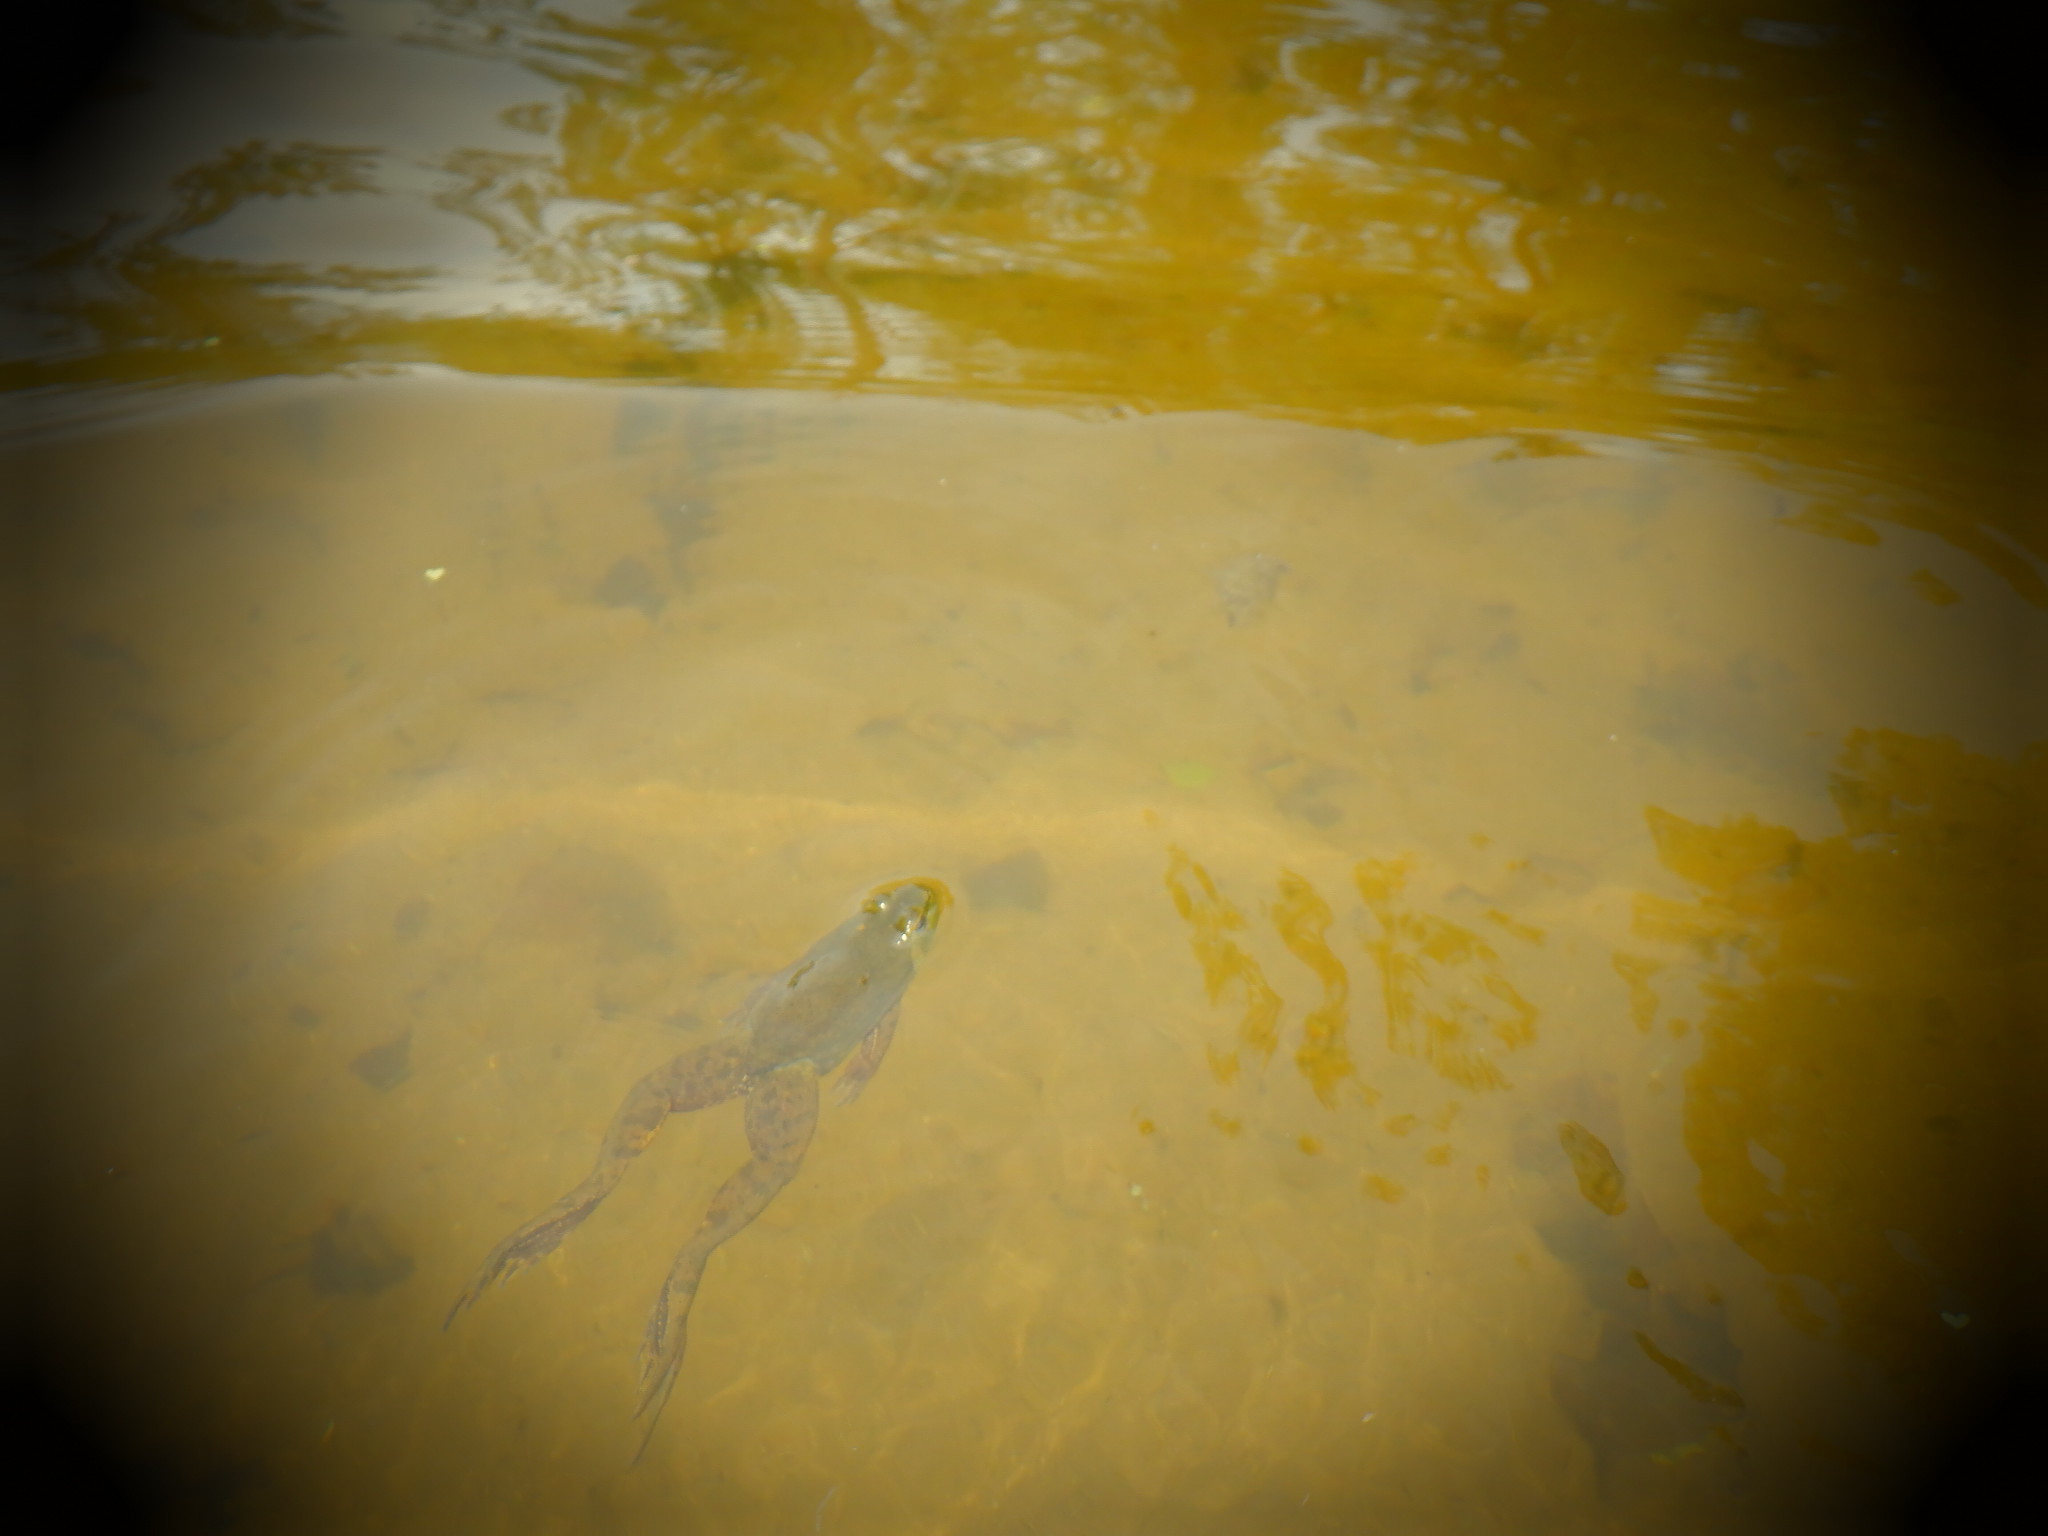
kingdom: Animalia
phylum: Chordata
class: Amphibia
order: Anura
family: Ranidae
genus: Lithobates
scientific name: Lithobates clamitans
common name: Green frog
